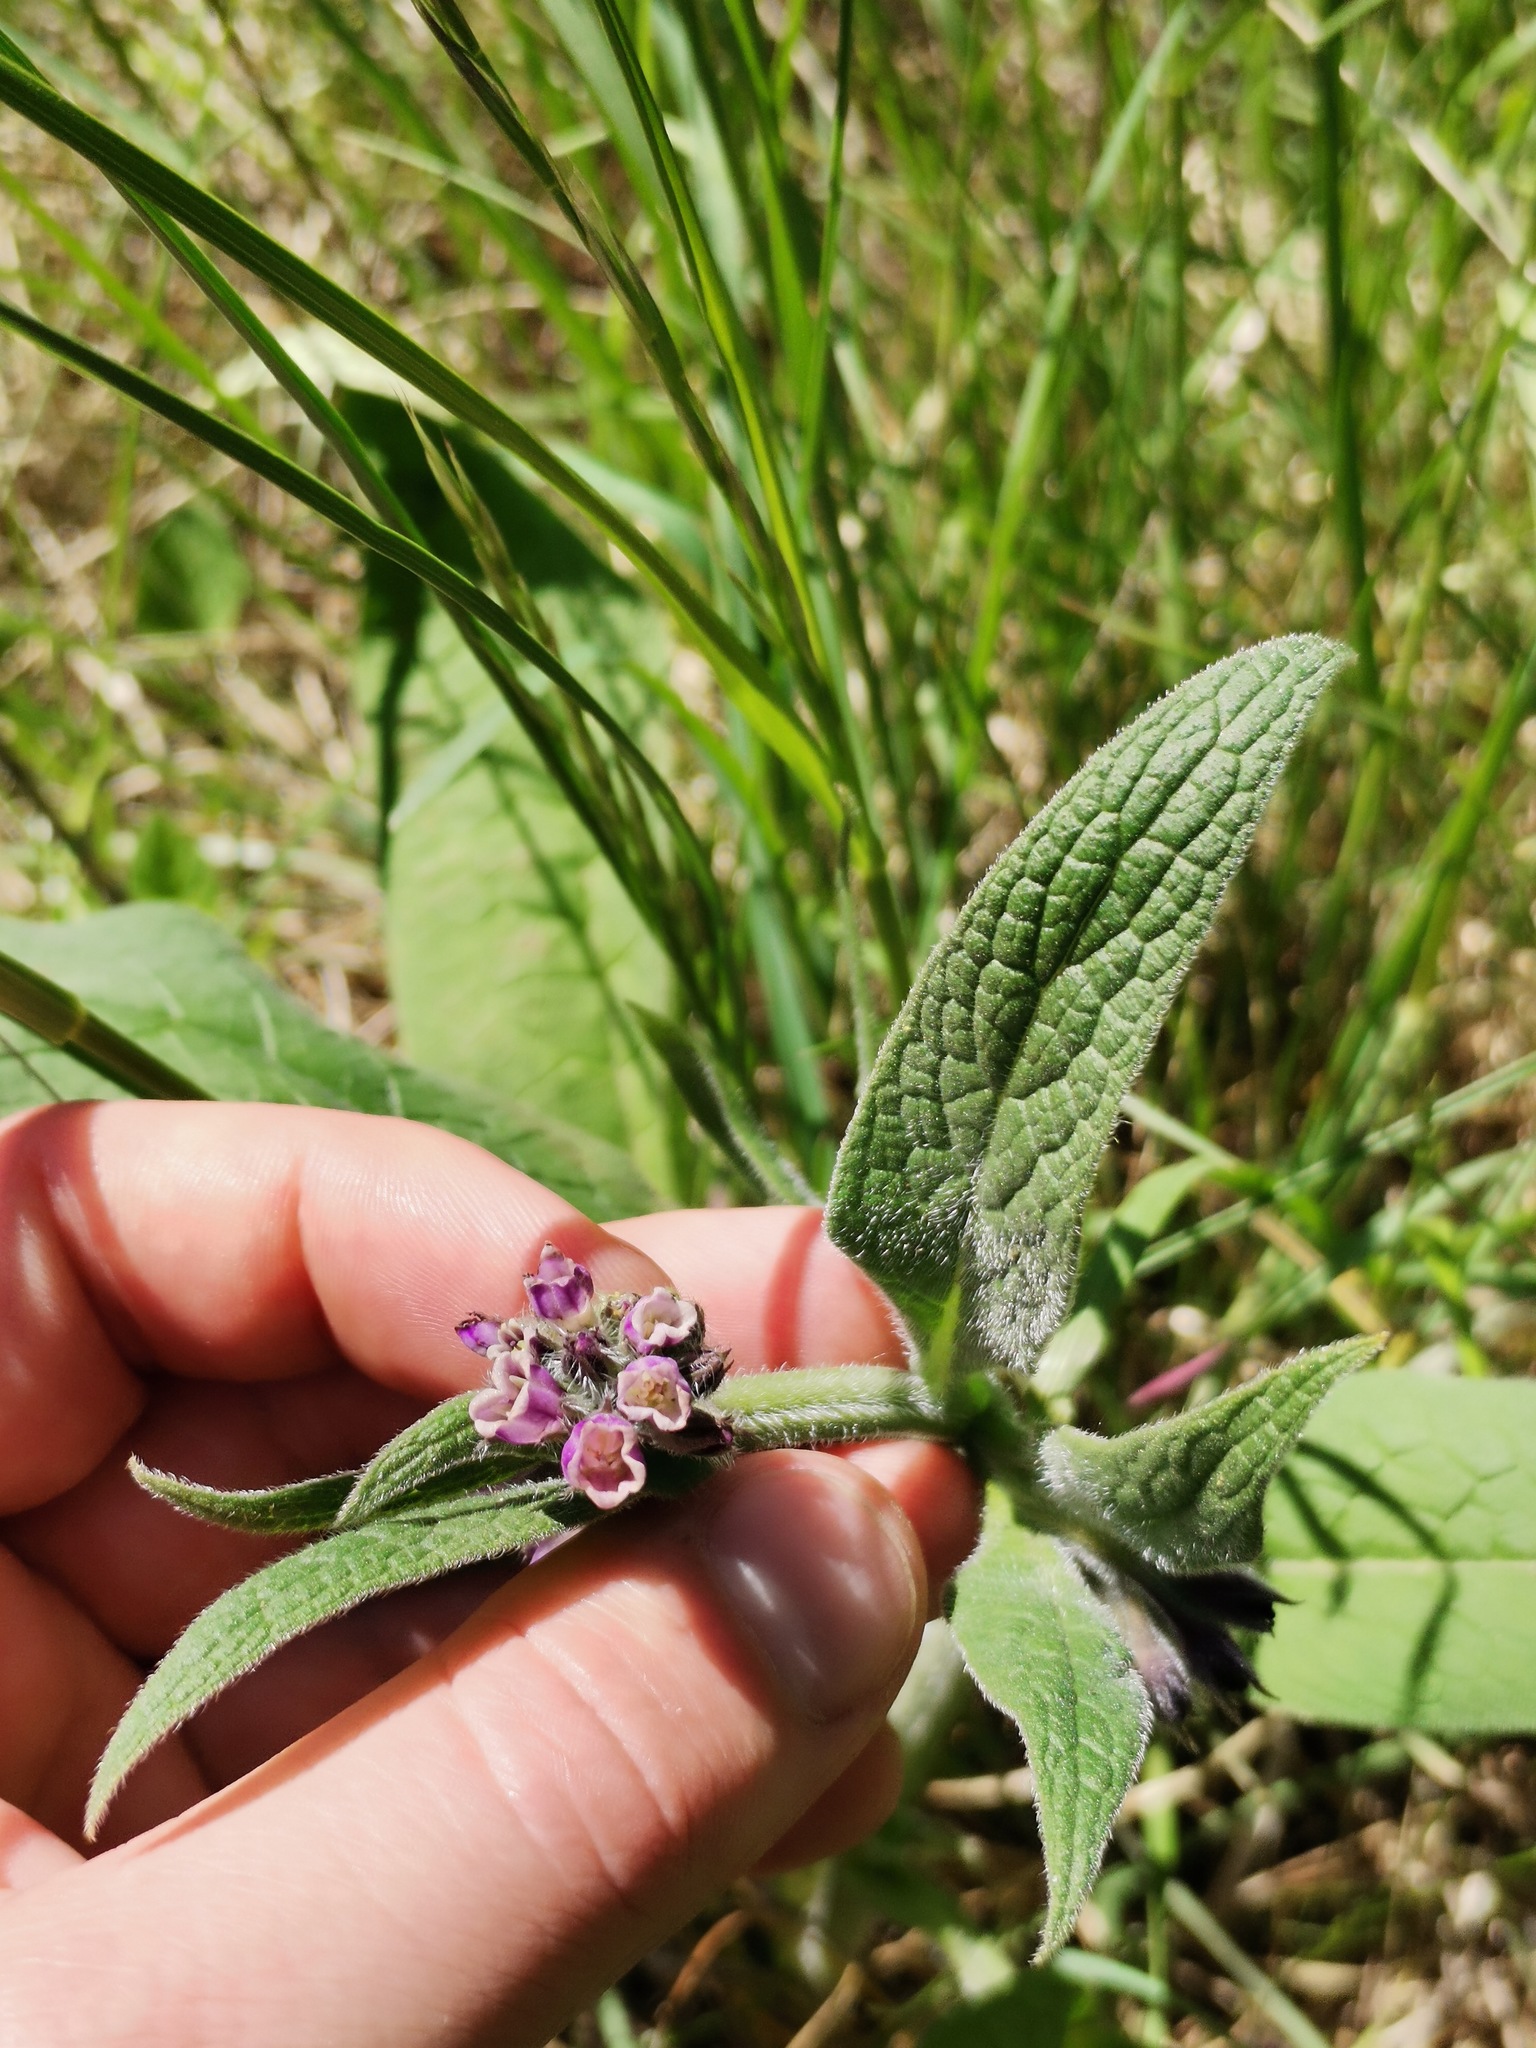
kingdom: Plantae
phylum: Tracheophyta
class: Magnoliopsida
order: Boraginales
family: Boraginaceae
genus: Symphytum
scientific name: Symphytum officinale
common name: Common comfrey
